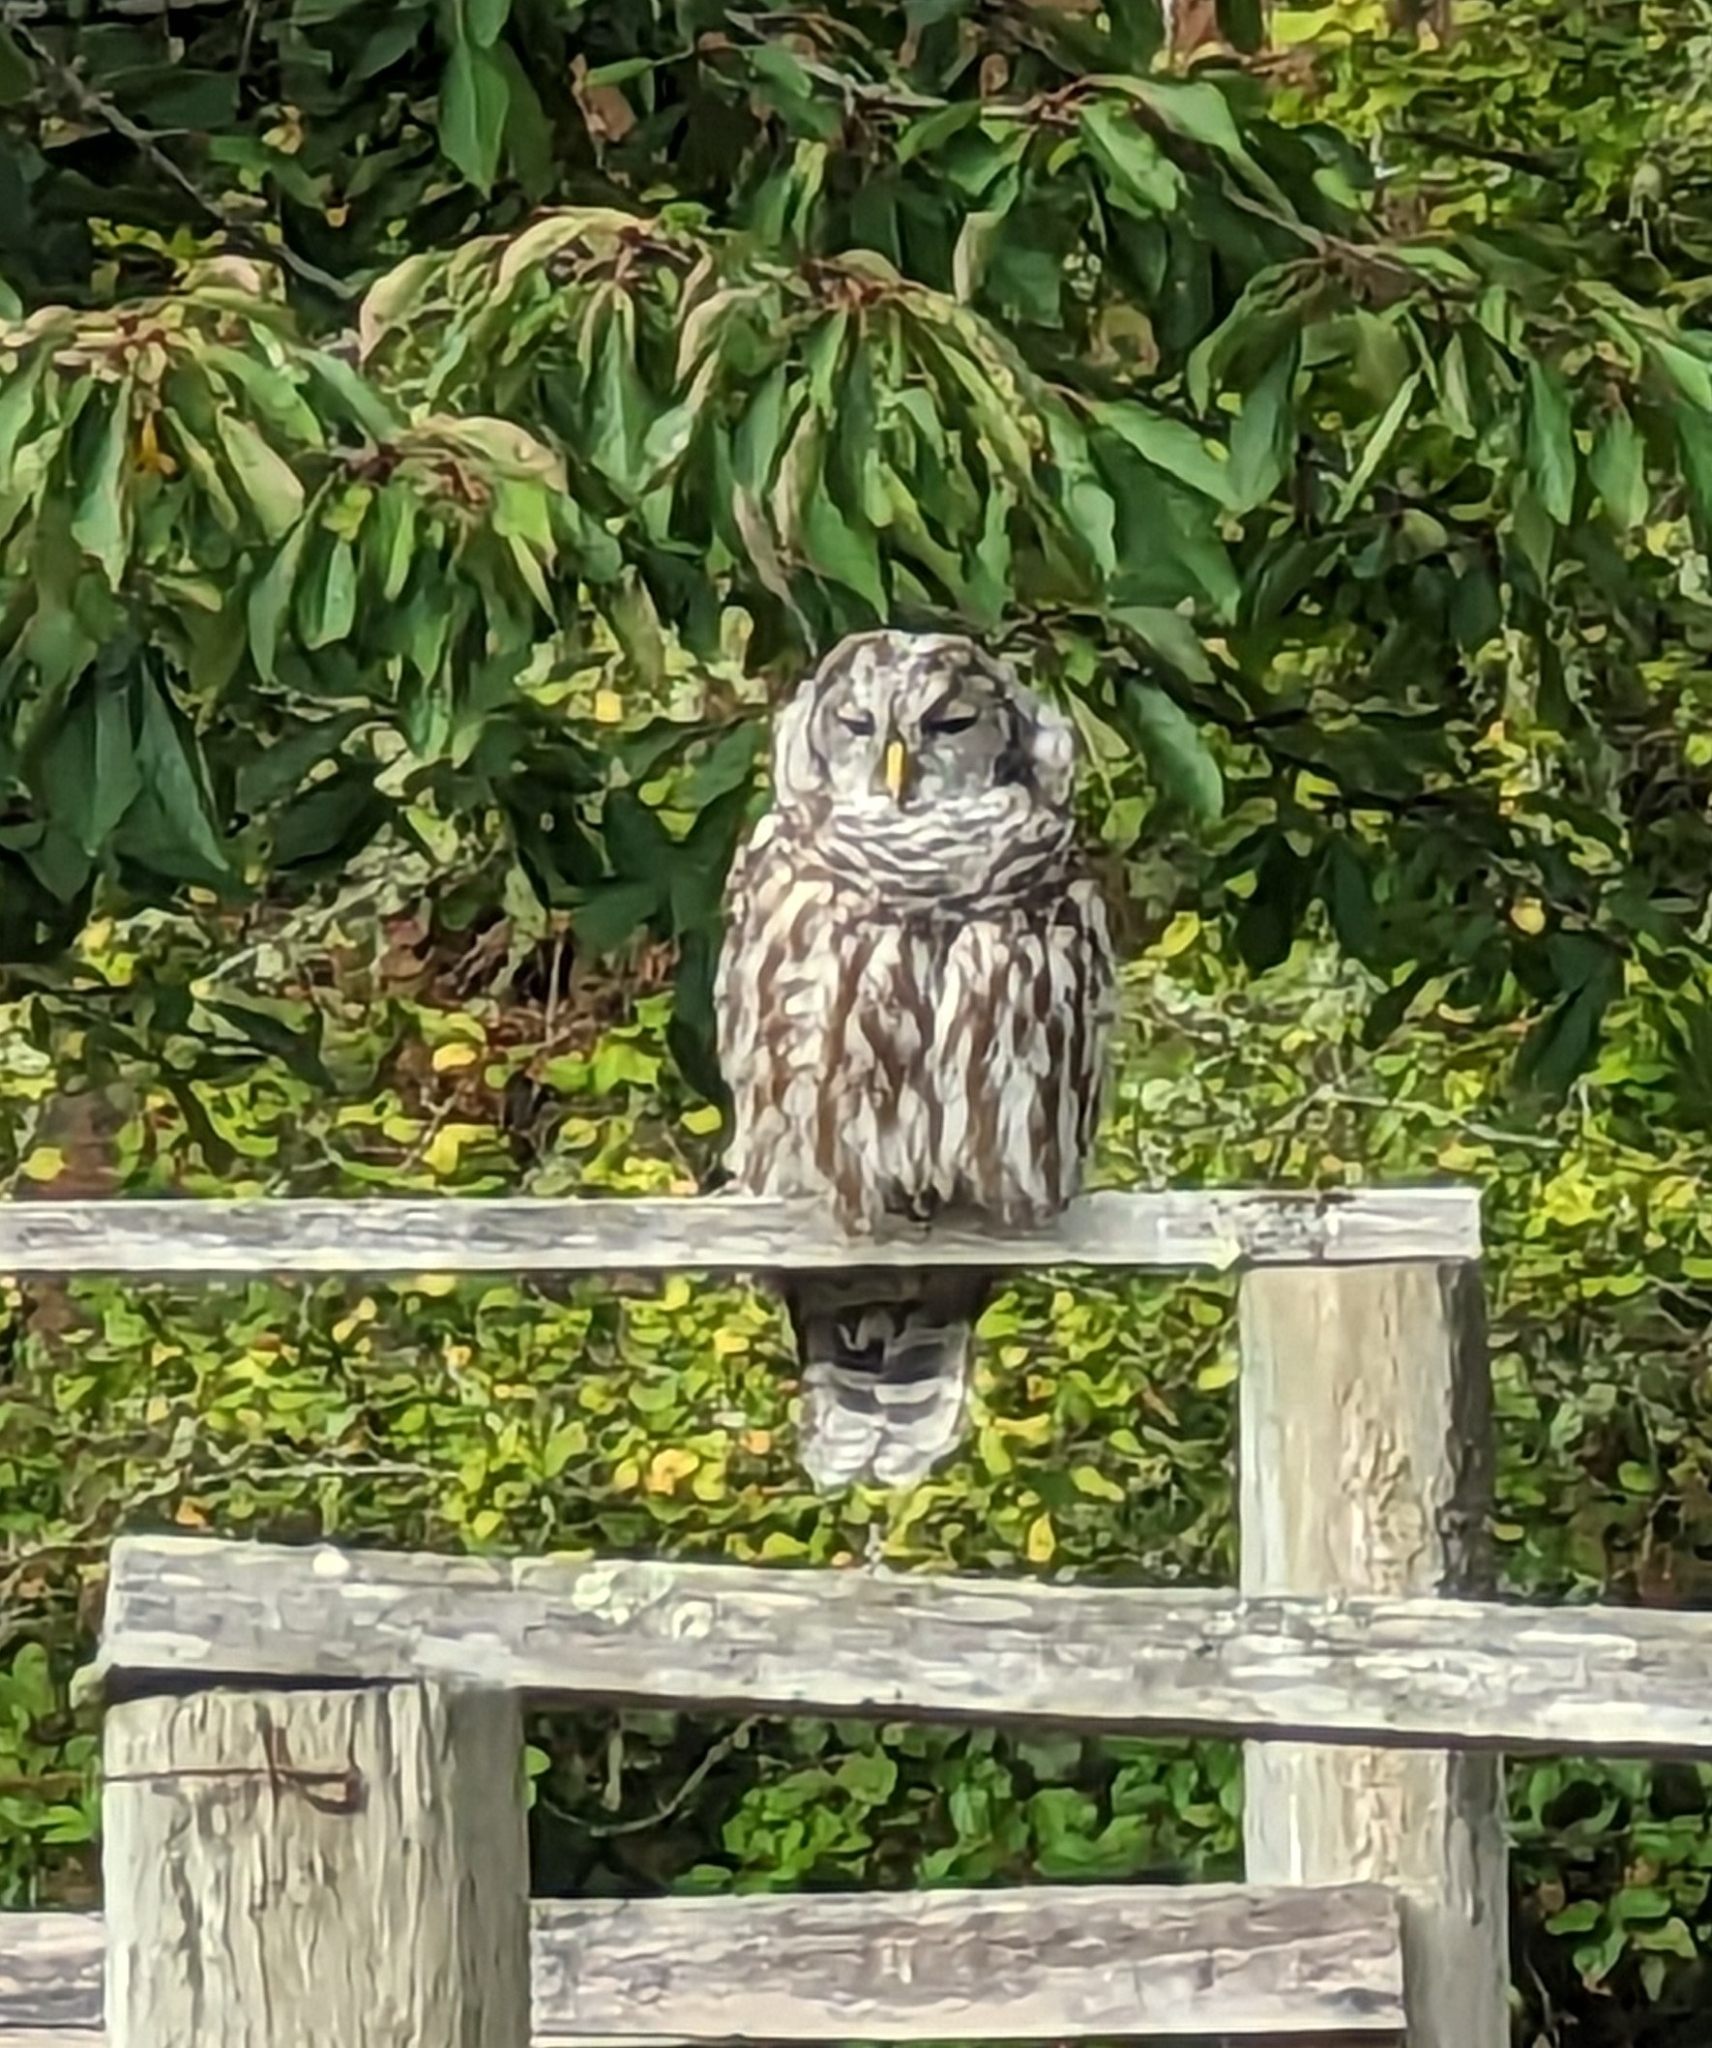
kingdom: Animalia
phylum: Chordata
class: Aves
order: Strigiformes
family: Strigidae
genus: Strix
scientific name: Strix varia
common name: Barred owl
